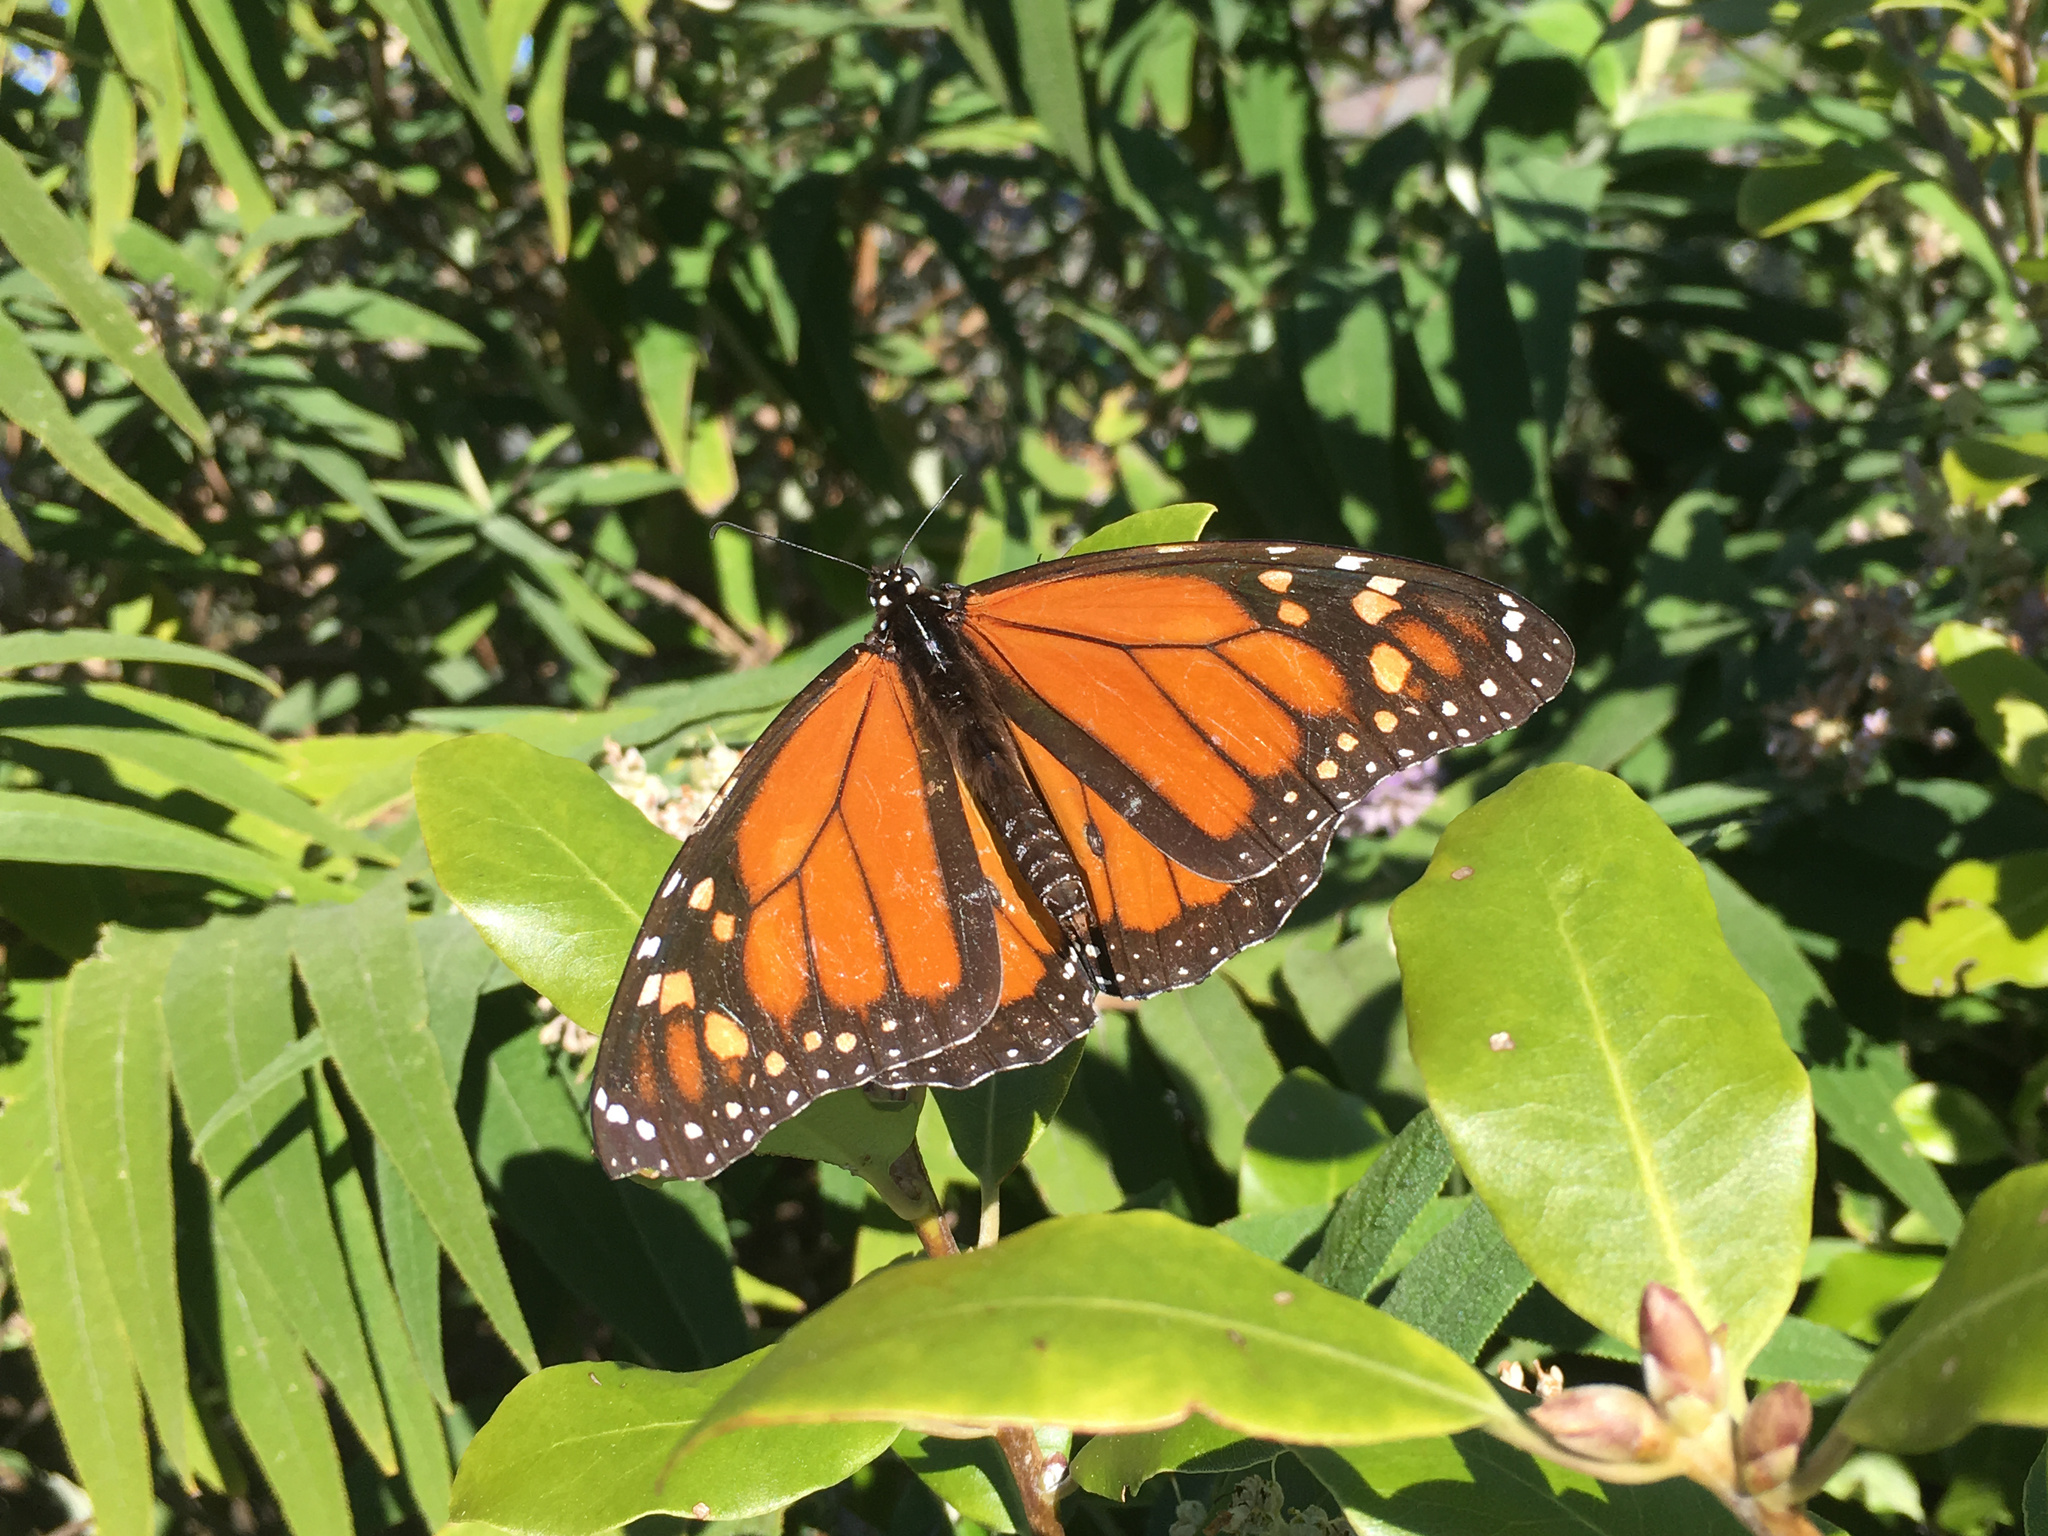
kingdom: Animalia
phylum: Arthropoda
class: Insecta
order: Lepidoptera
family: Nymphalidae
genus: Danaus
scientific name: Danaus plexippus
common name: Monarch
